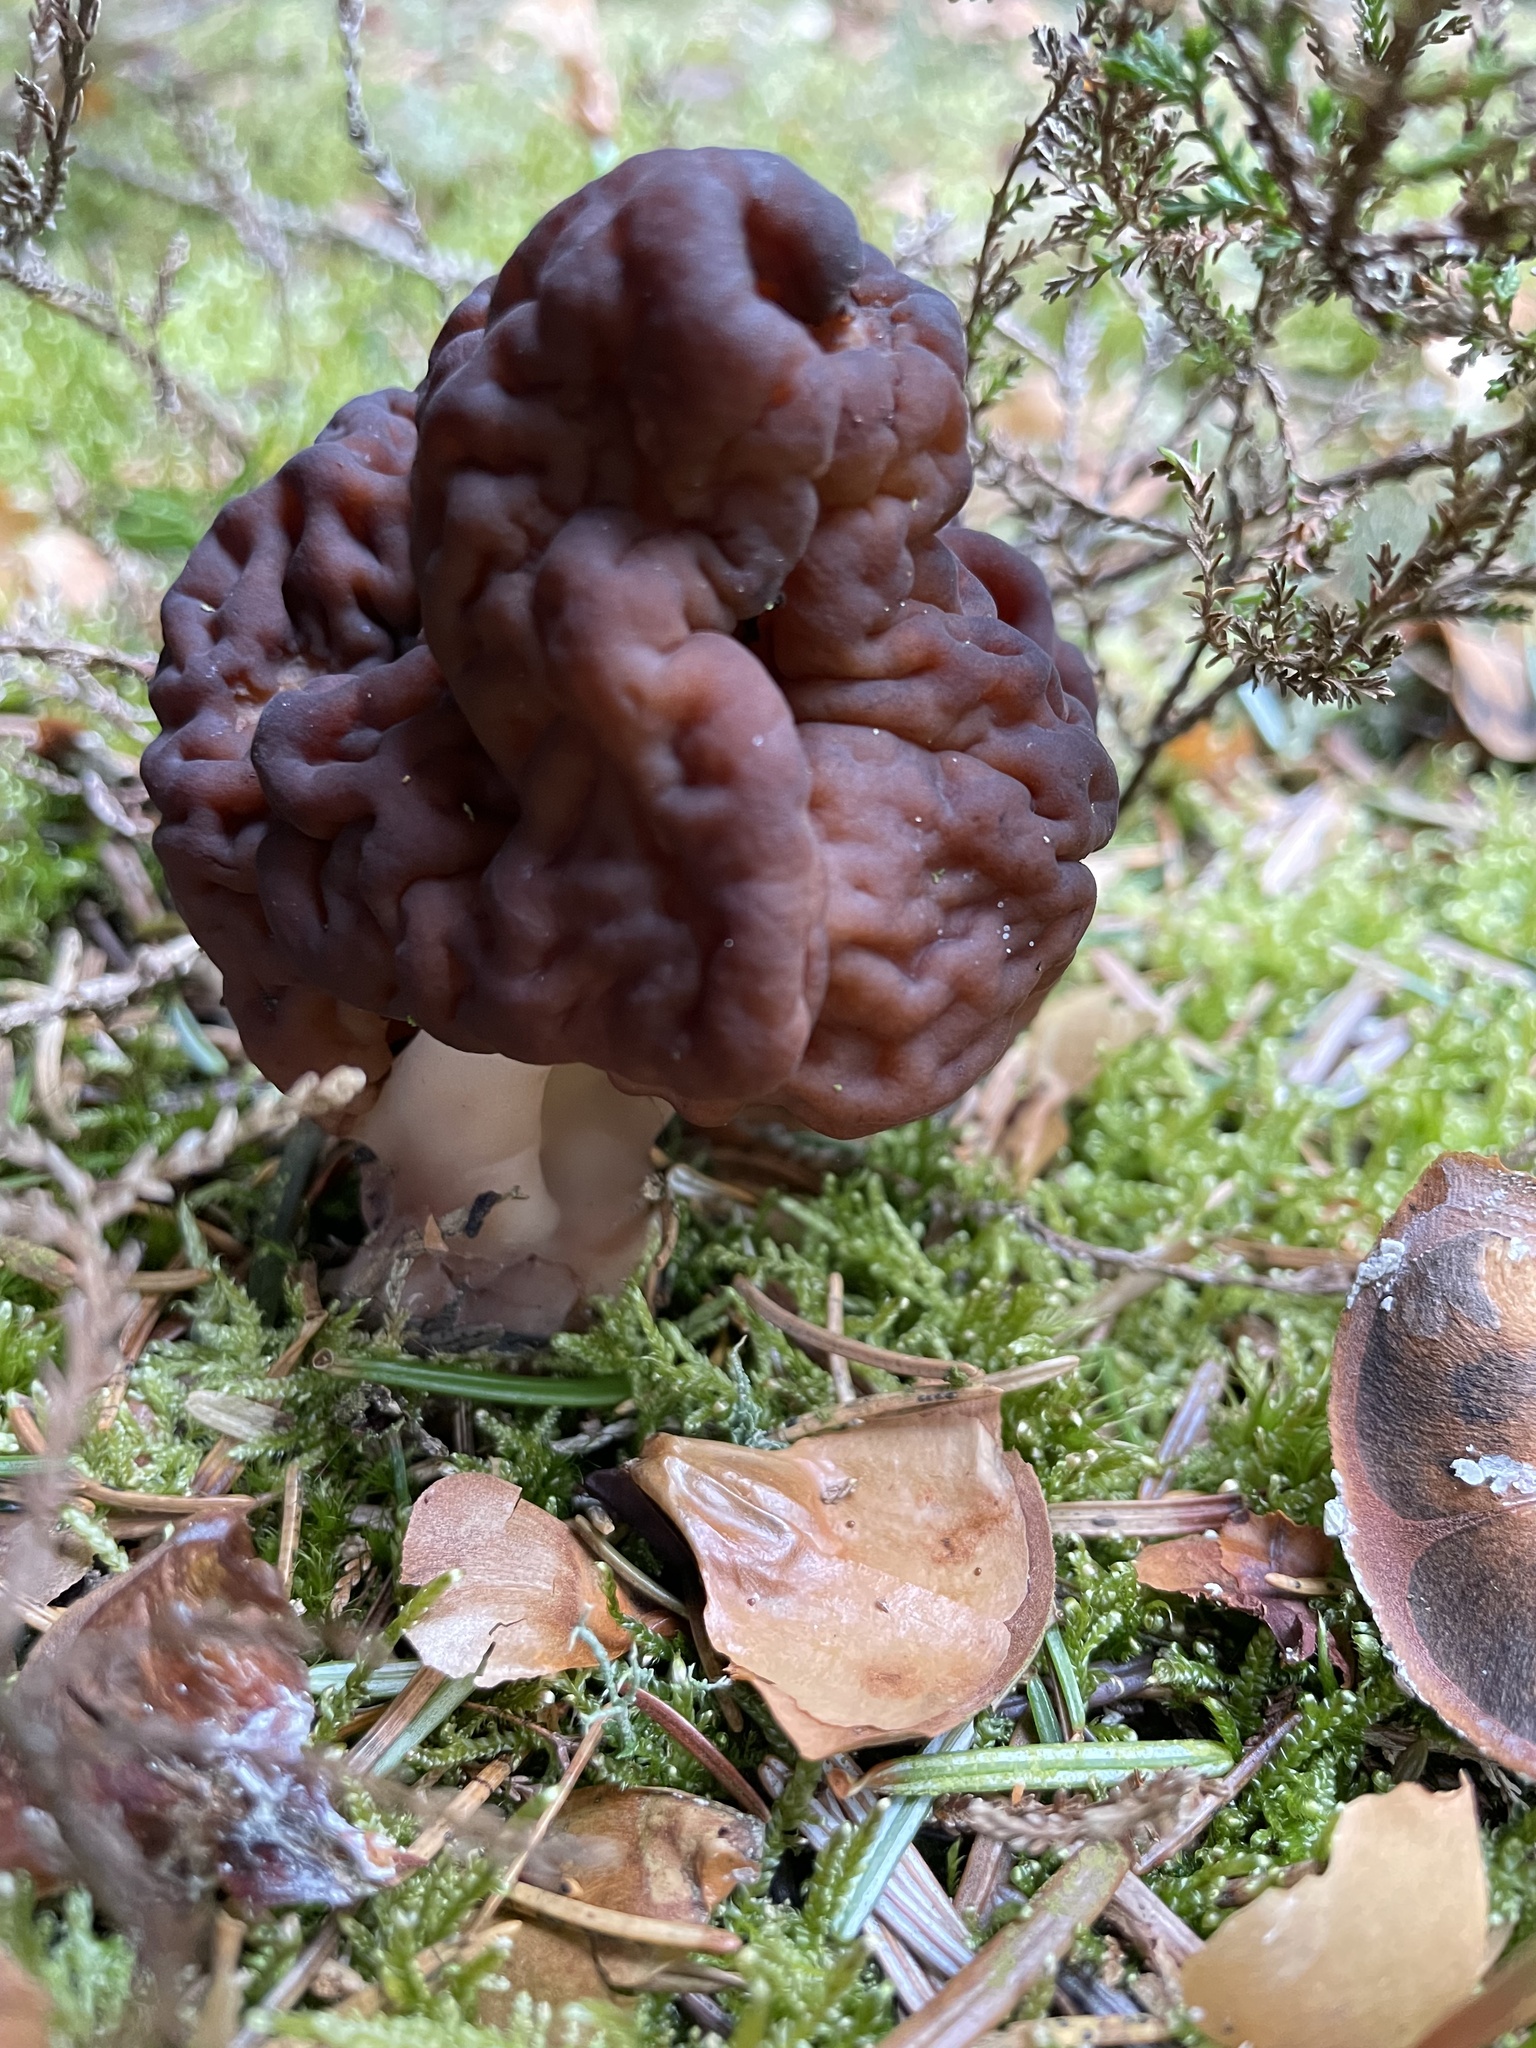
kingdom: Fungi
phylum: Ascomycota
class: Pezizomycetes
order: Pezizales
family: Discinaceae
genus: Gyromitra
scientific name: Gyromitra esculenta
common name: False morel
